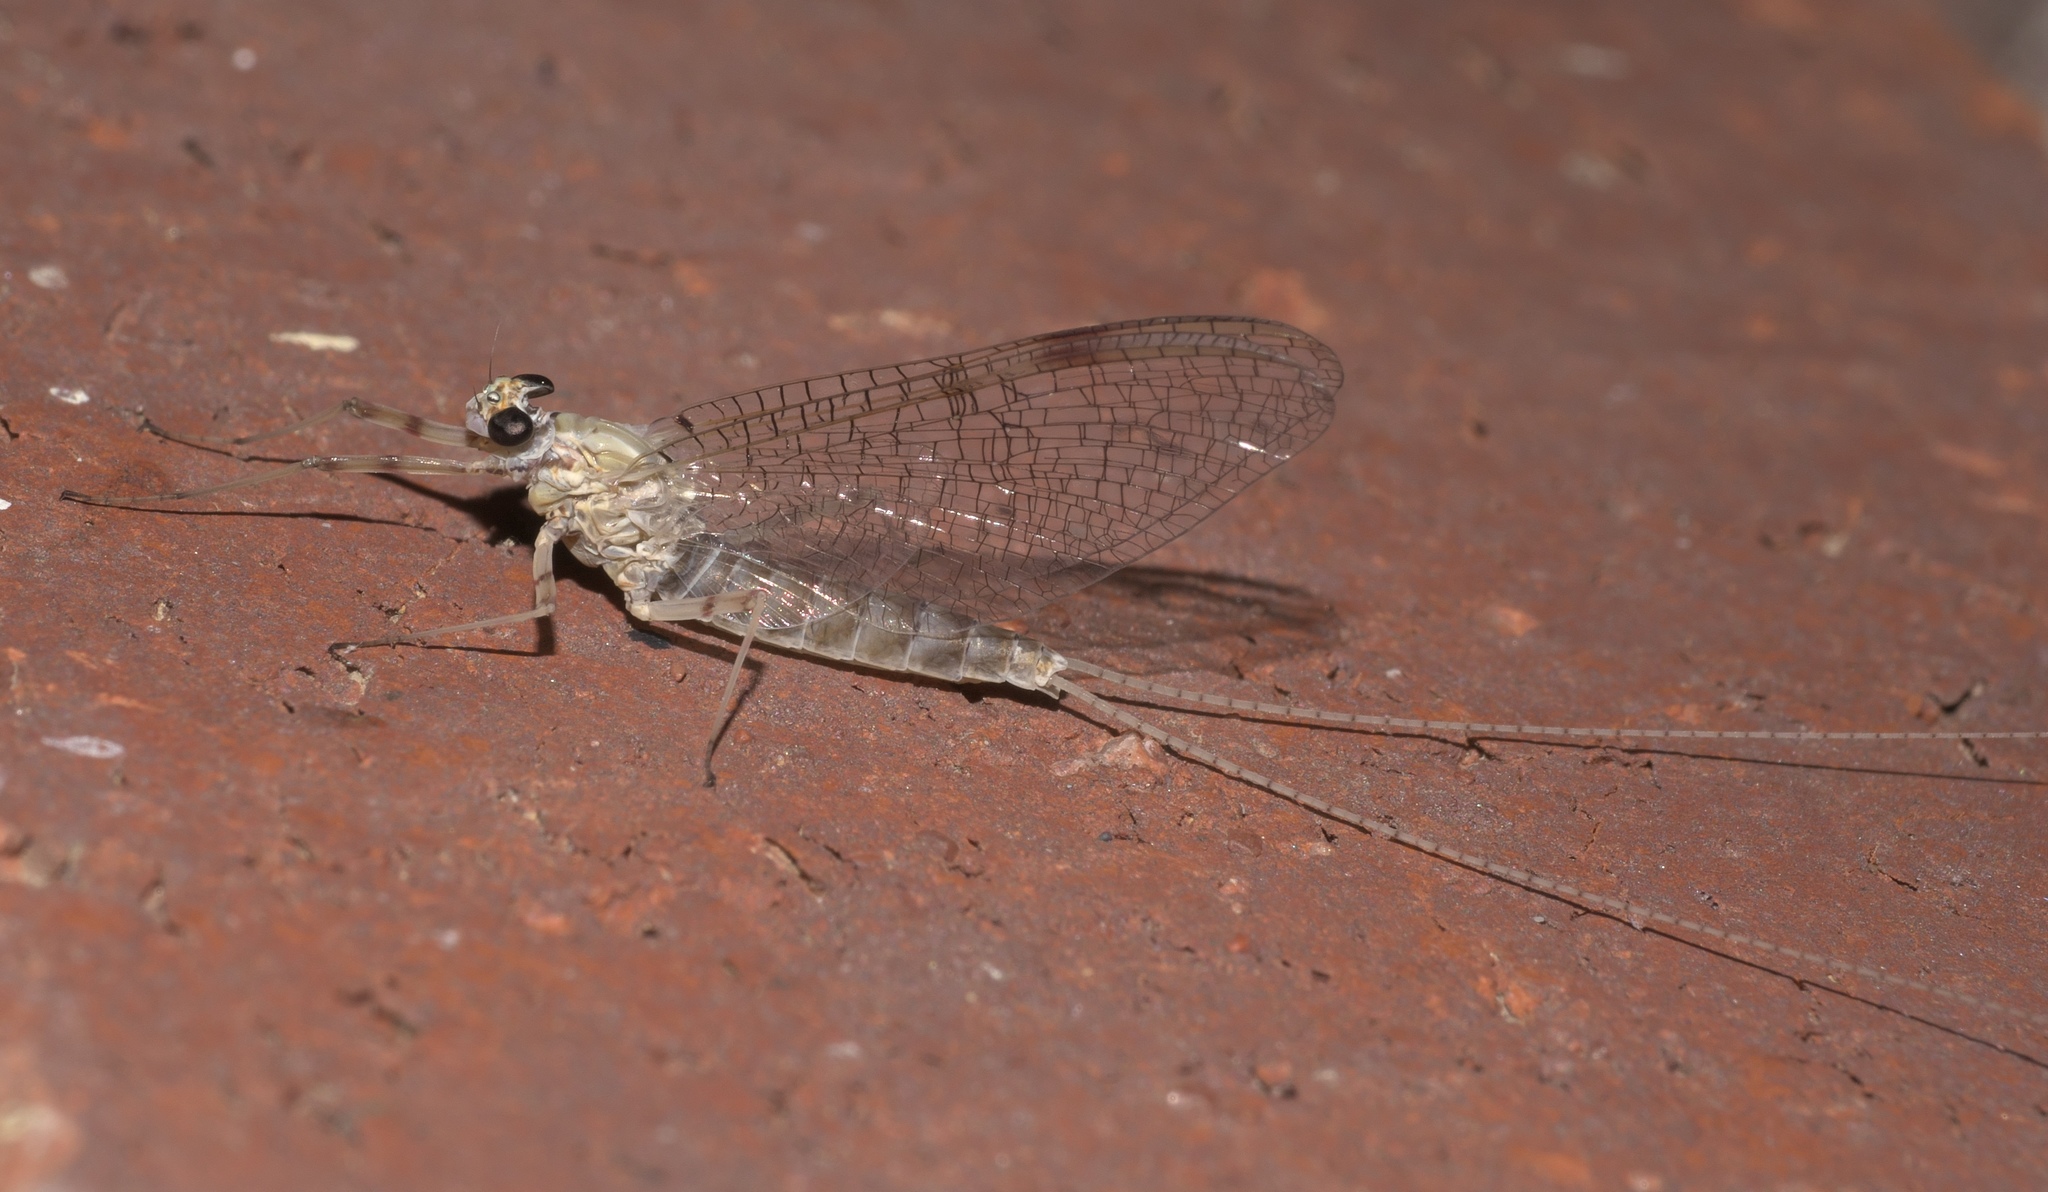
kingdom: Animalia
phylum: Arthropoda
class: Insecta
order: Ephemeroptera
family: Heptageniidae
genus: Stenonema
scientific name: Stenonema femoratum
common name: Dark cahill
